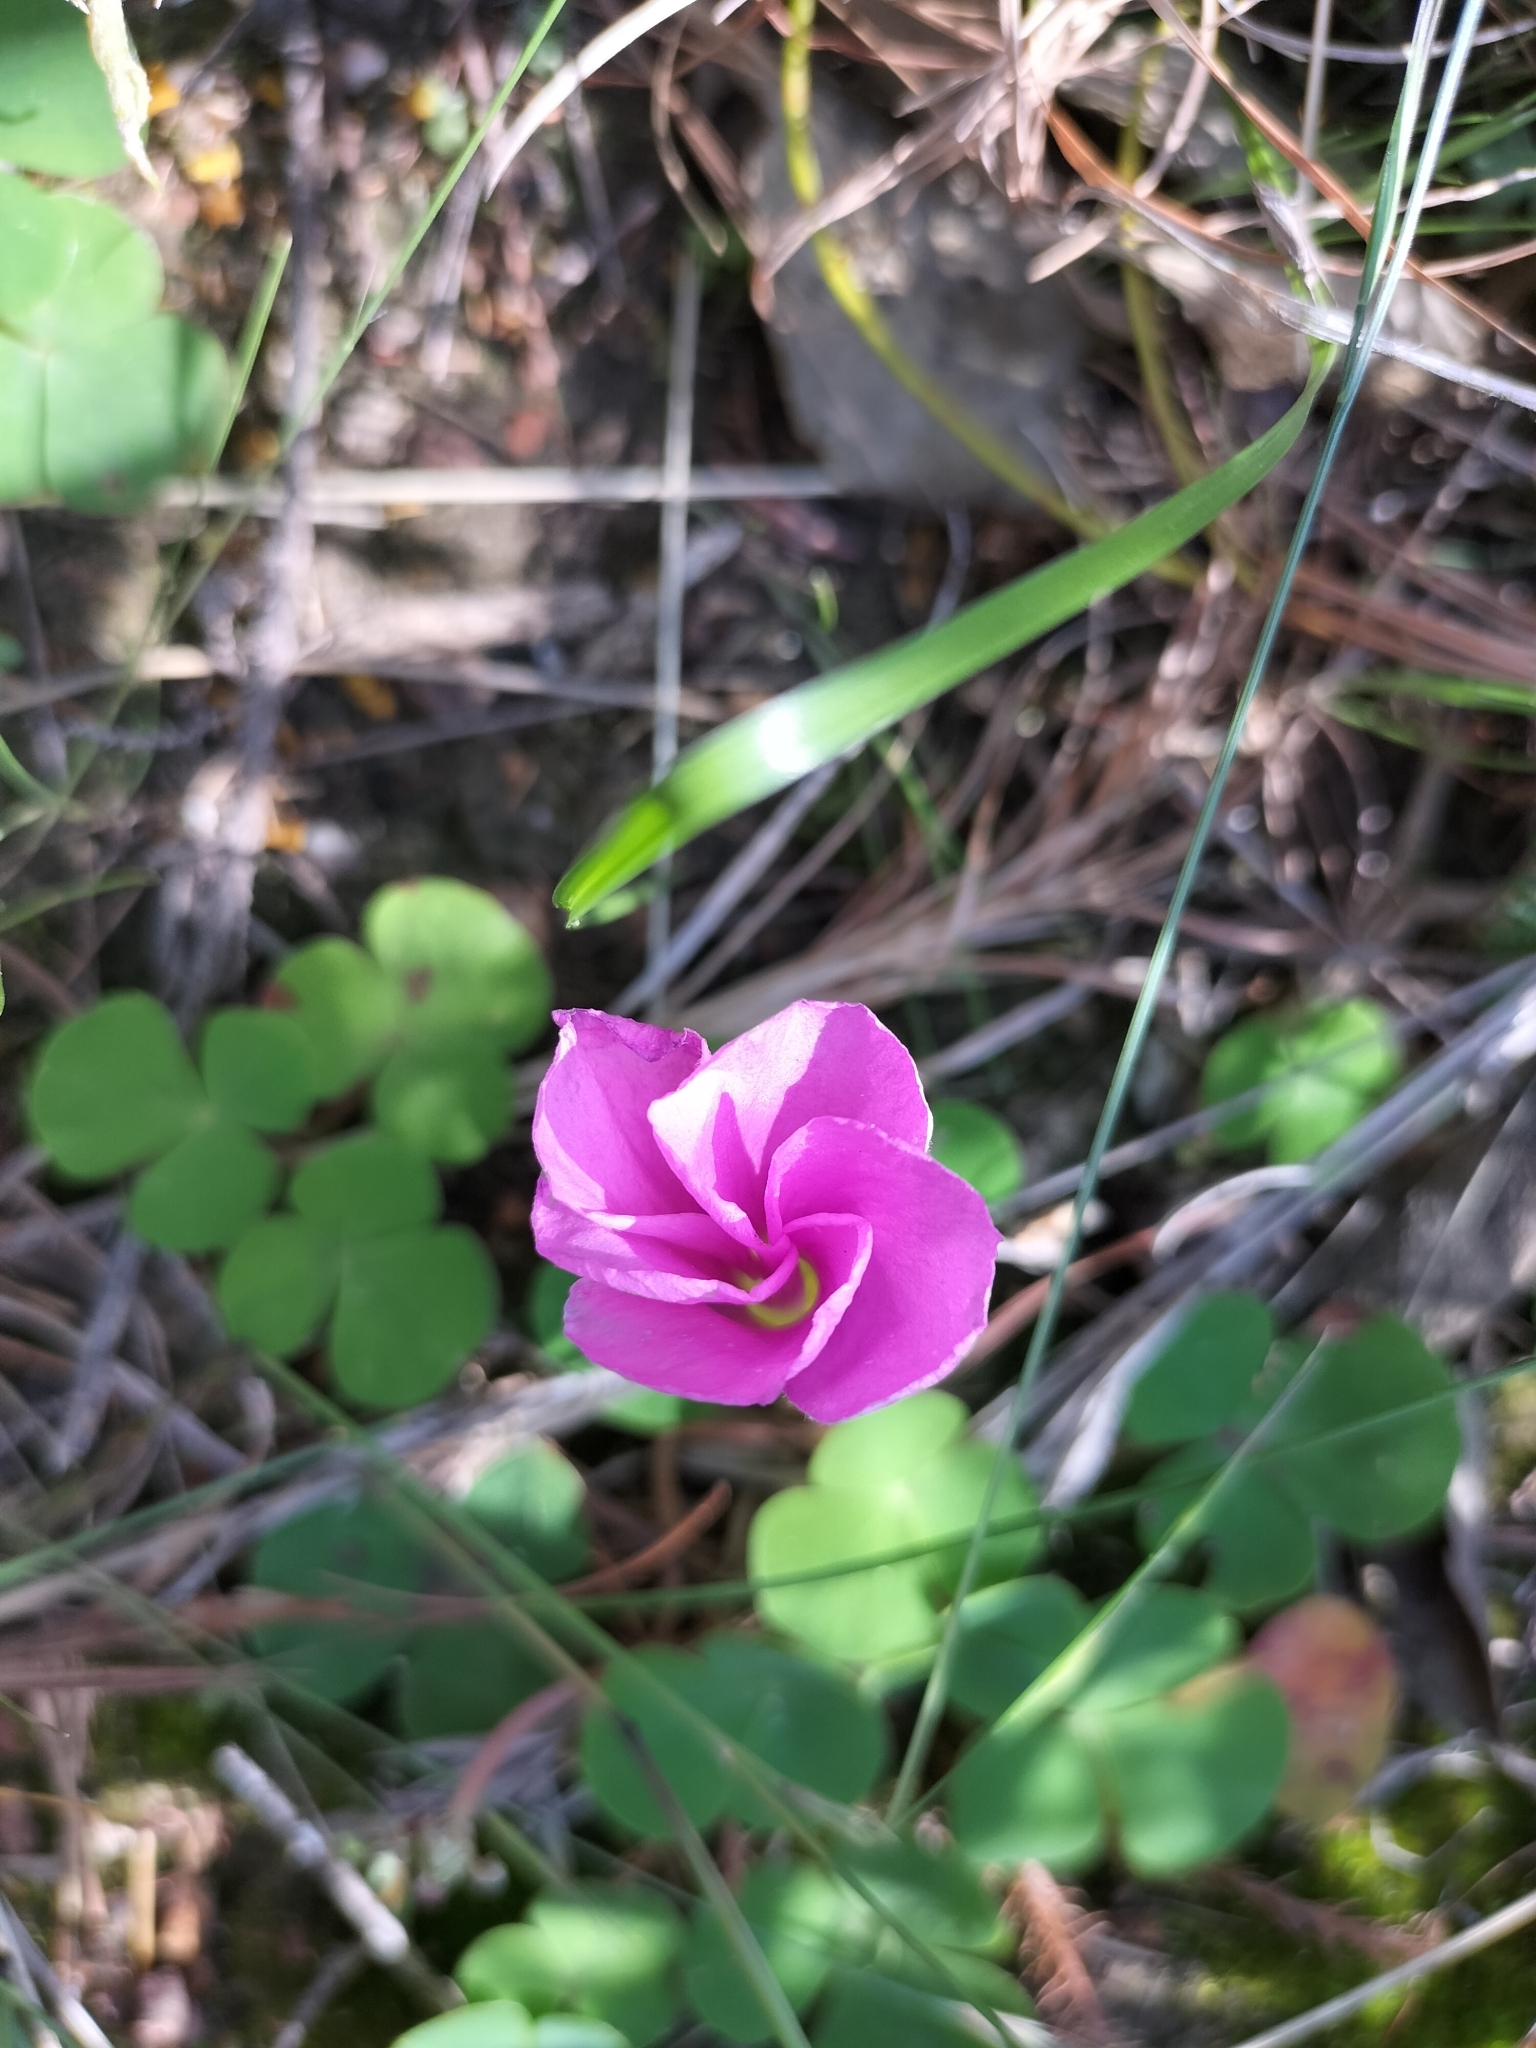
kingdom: Plantae
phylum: Tracheophyta
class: Magnoliopsida
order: Oxalidales
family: Oxalidaceae
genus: Oxalis
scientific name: Oxalis purpurea
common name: Purple woodsorrel
